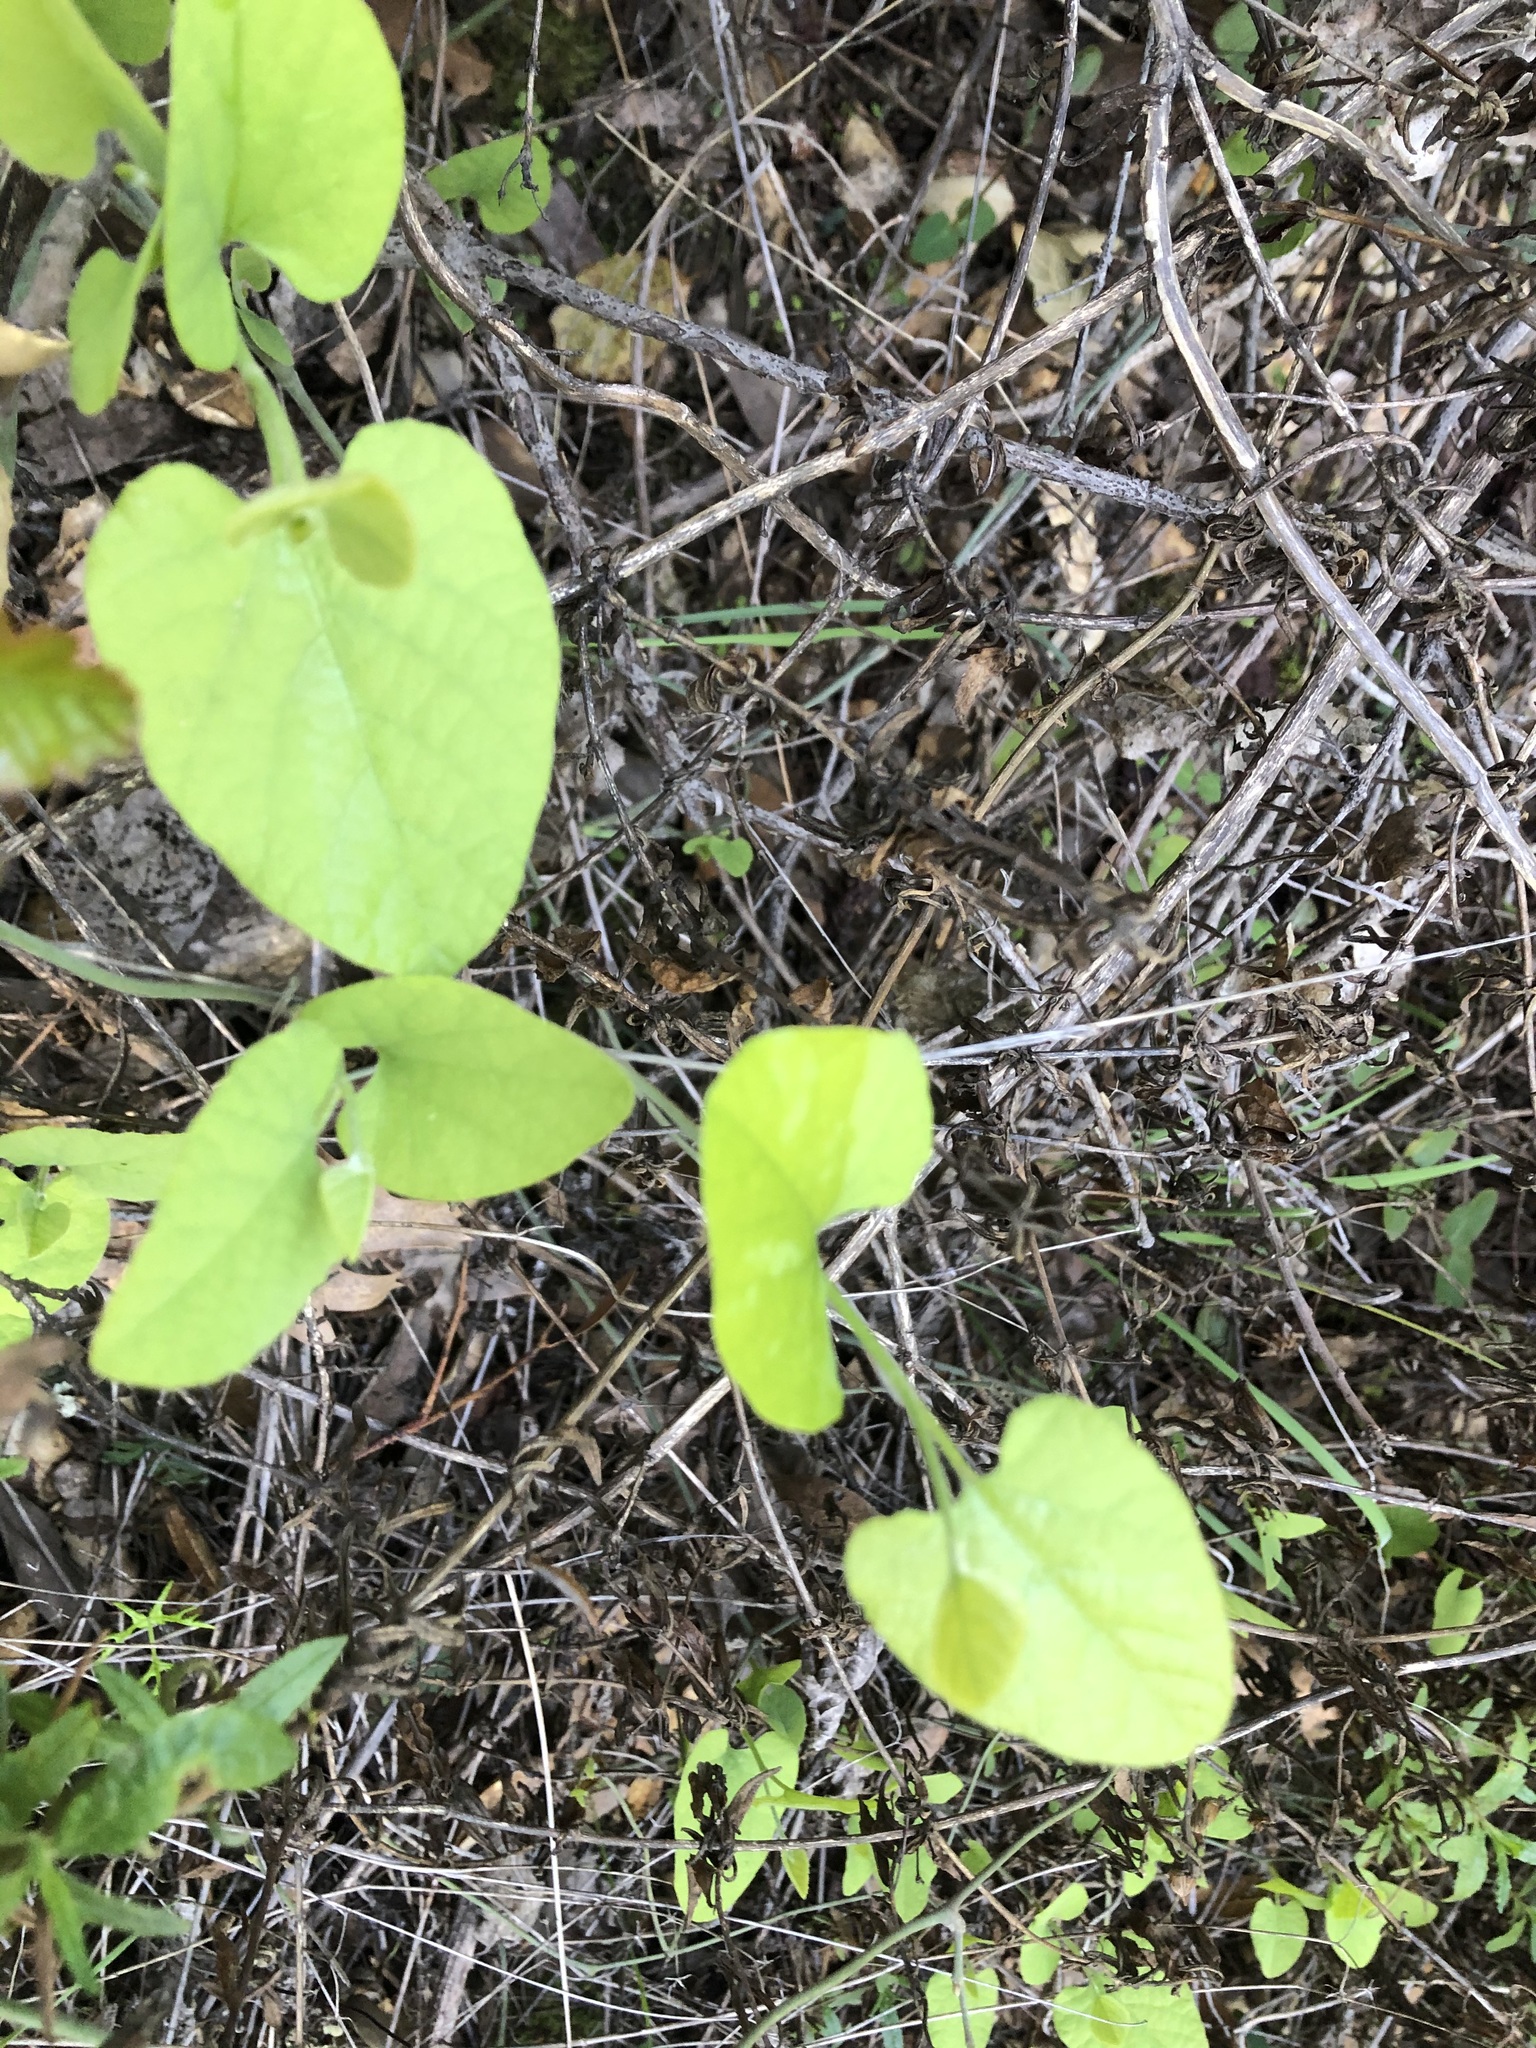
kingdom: Plantae
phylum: Tracheophyta
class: Magnoliopsida
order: Piperales
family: Aristolochiaceae
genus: Isotrema
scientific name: Isotrema californicum
